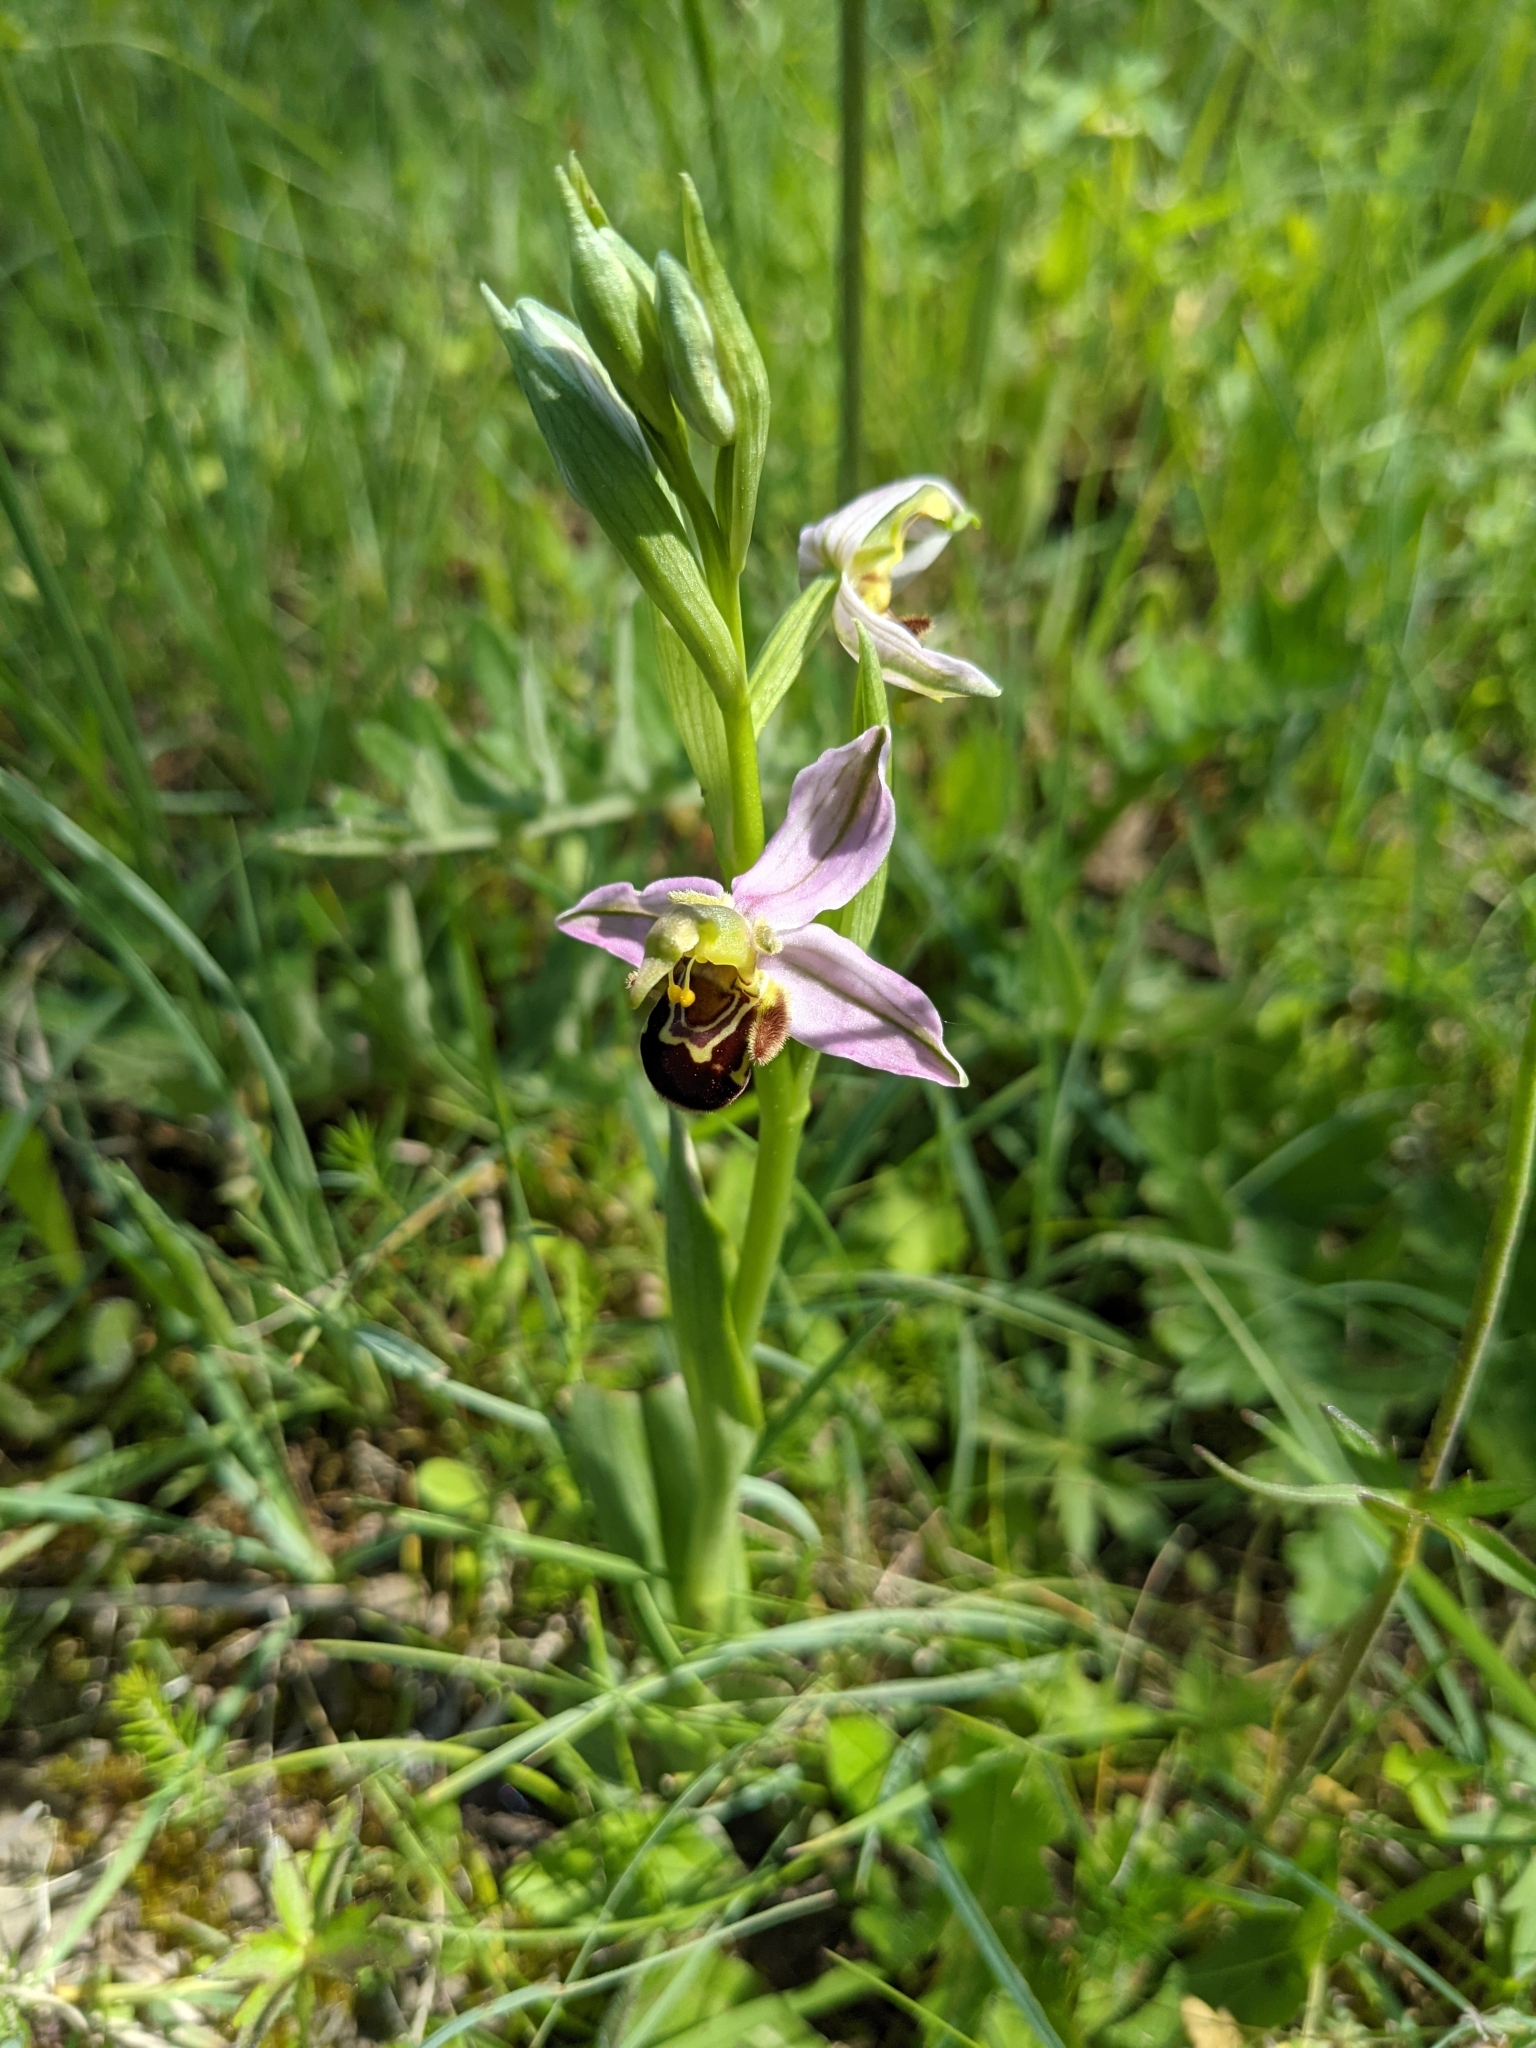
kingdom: Plantae
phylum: Tracheophyta
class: Liliopsida
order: Asparagales
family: Orchidaceae
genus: Ophrys
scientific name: Ophrys apifera
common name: Bee orchid
